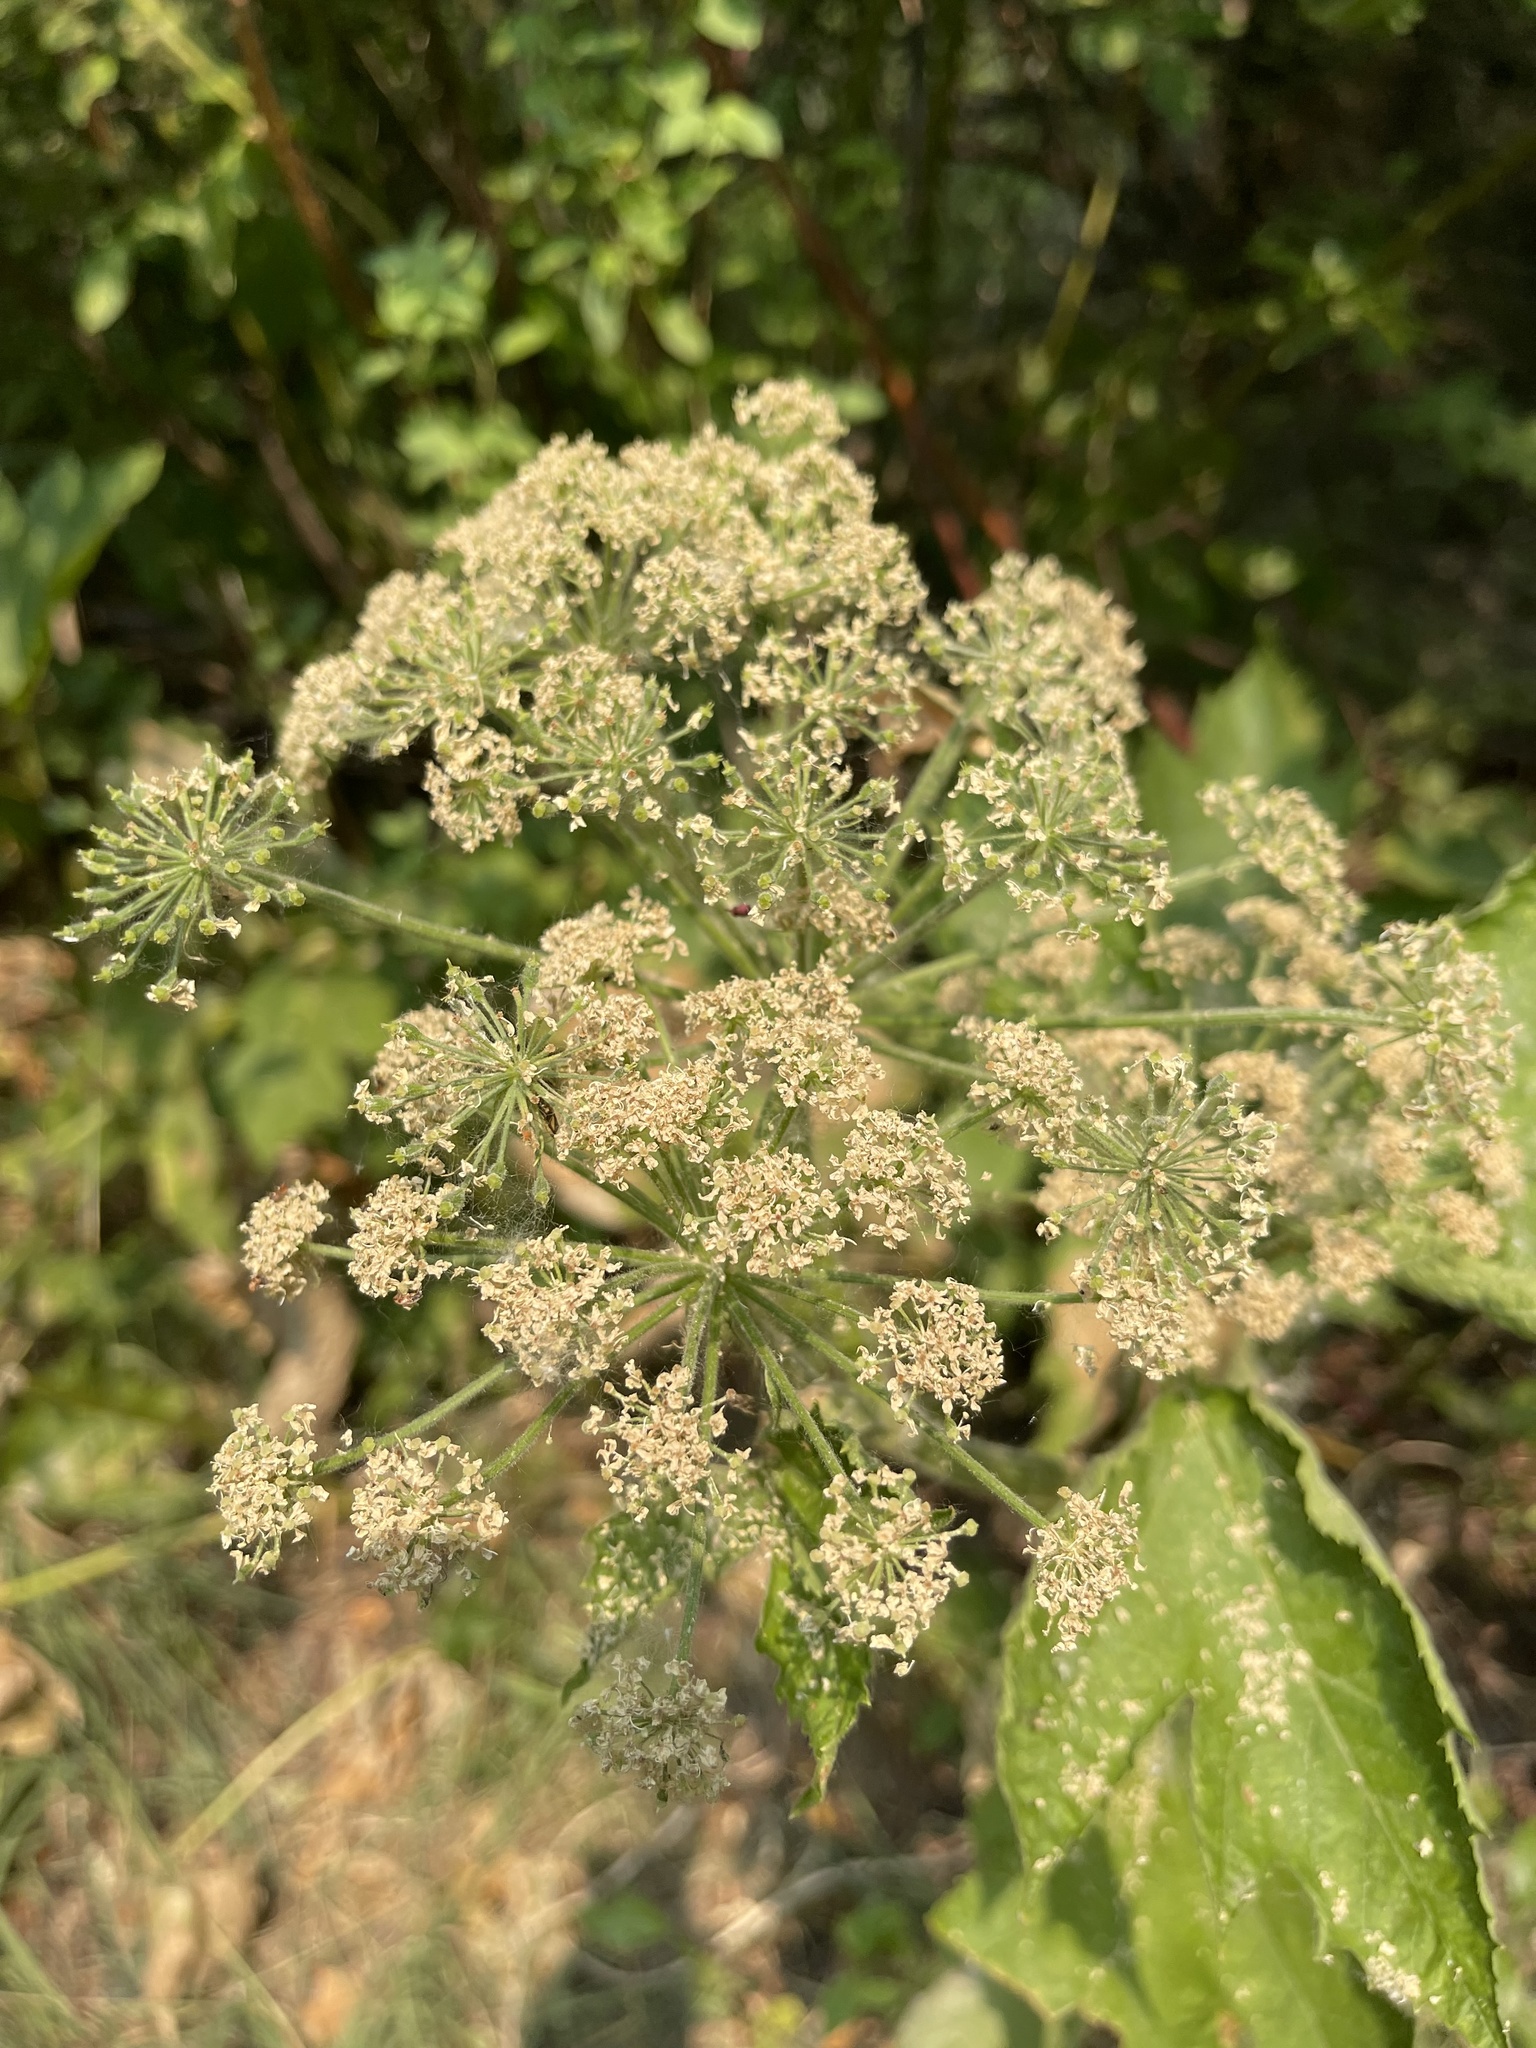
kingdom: Plantae
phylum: Tracheophyta
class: Magnoliopsida
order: Apiales
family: Apiaceae
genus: Heracleum
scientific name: Heracleum maximum
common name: American cow parsnip
